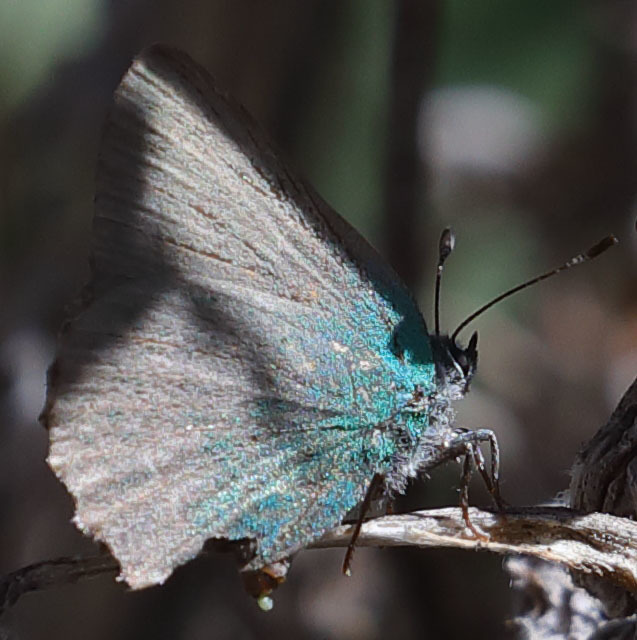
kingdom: Animalia
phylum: Arthropoda
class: Insecta
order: Lepidoptera
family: Lycaenidae
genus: Callophrys
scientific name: Callophrys dumetorum
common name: Bramble hairstreak
